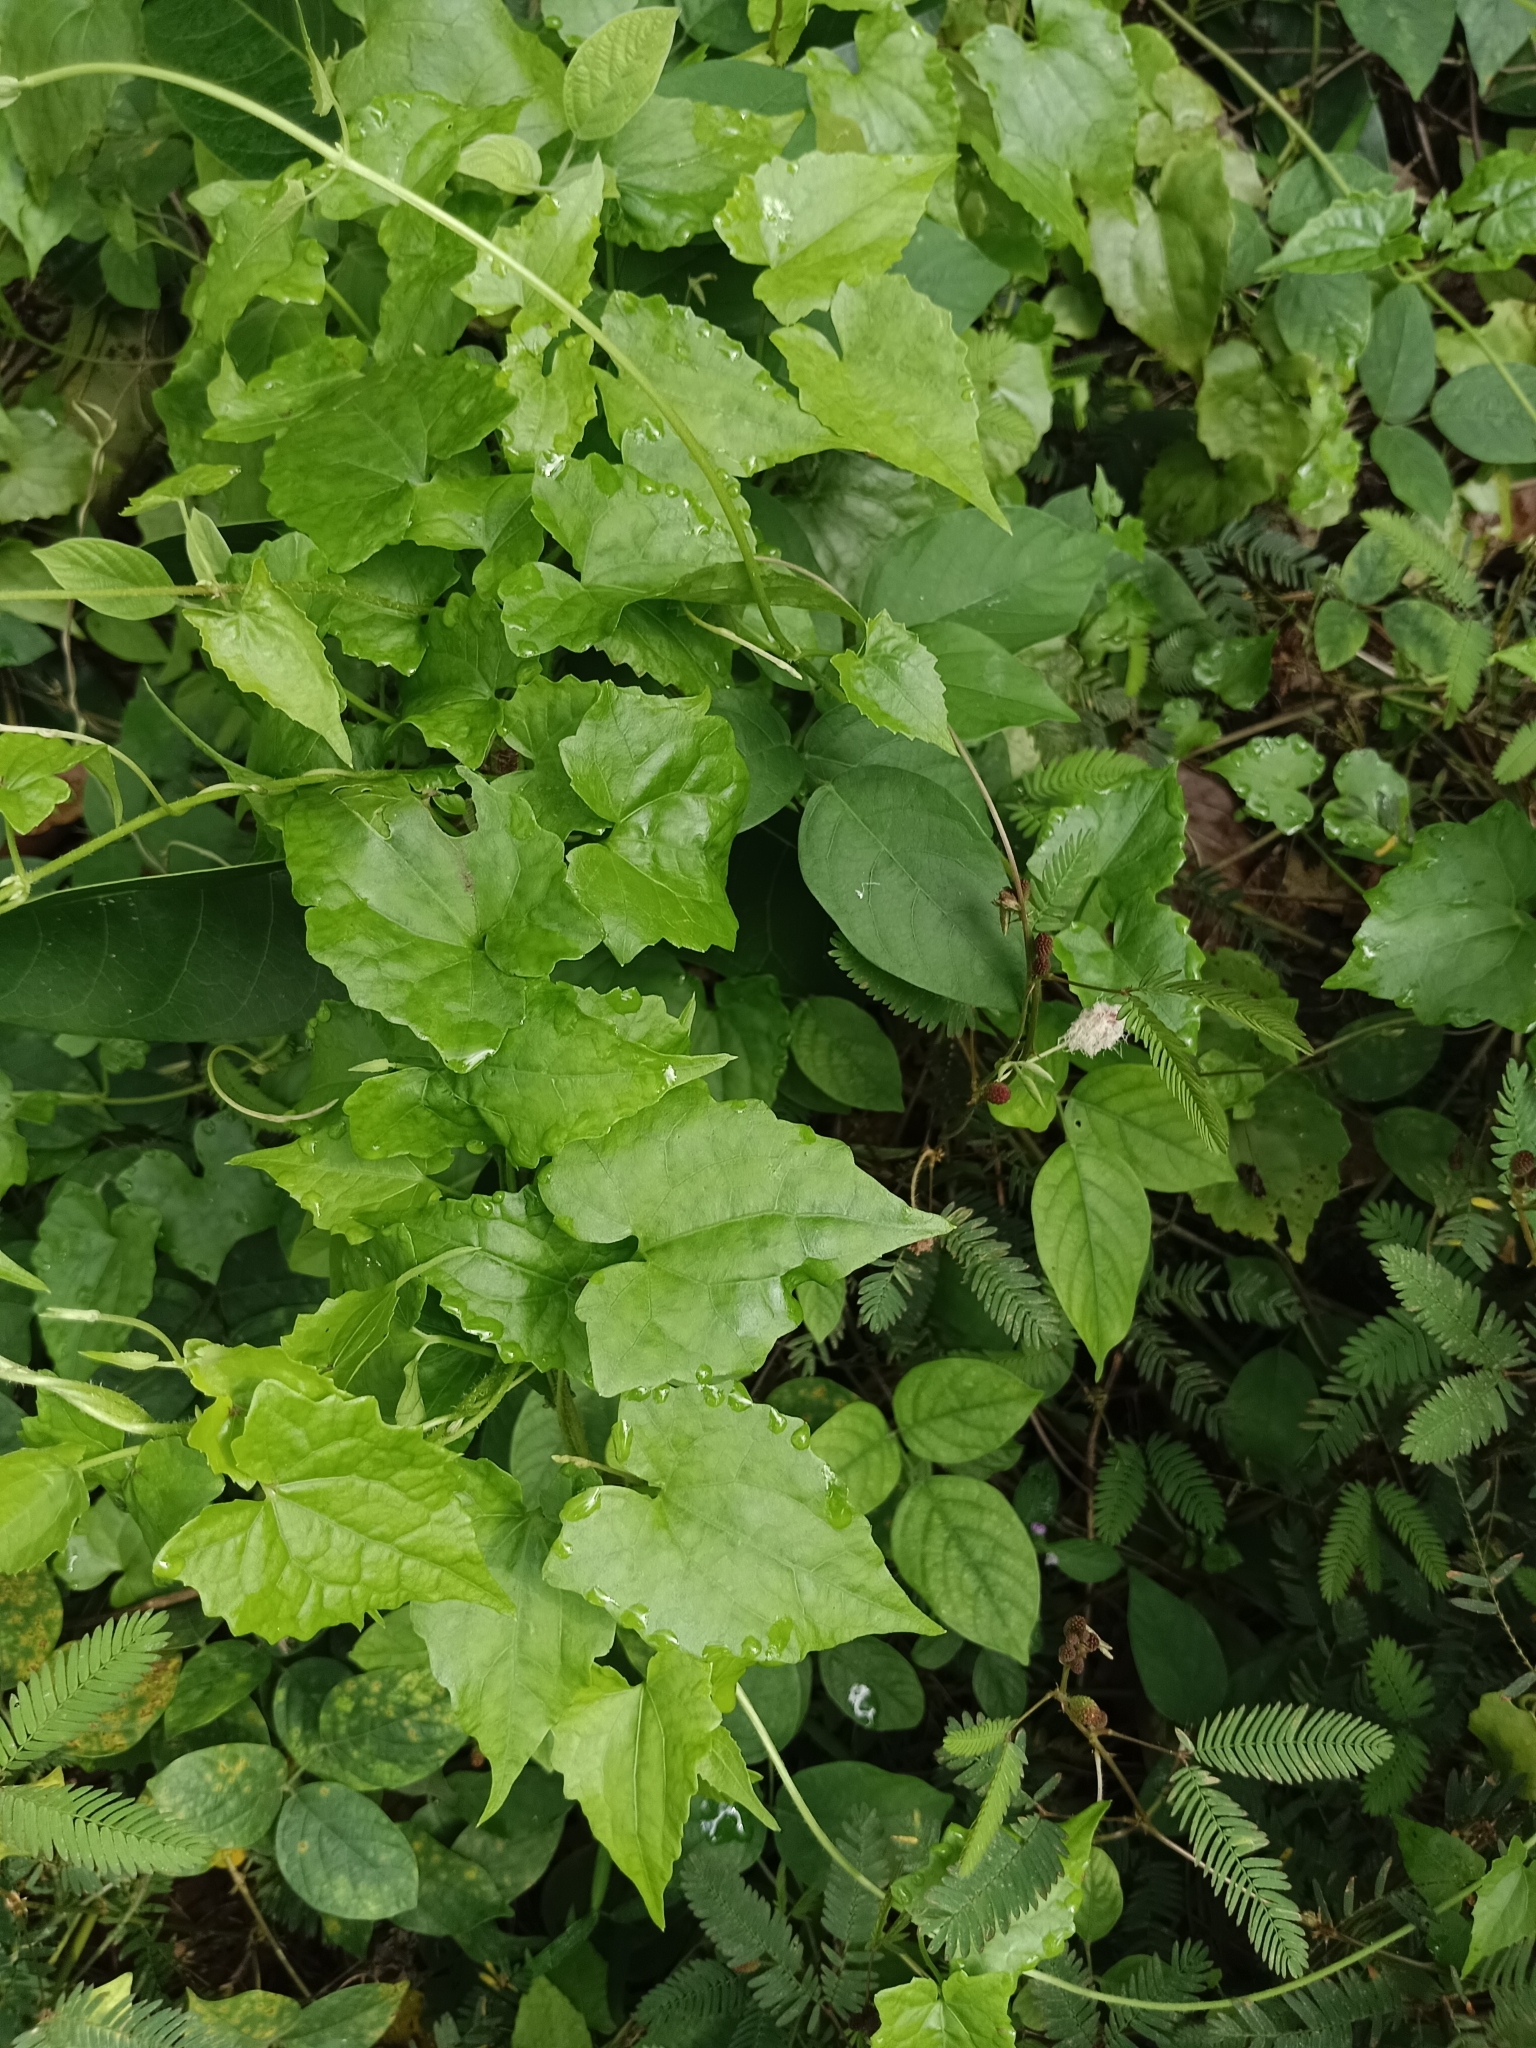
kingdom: Plantae
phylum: Tracheophyta
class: Magnoliopsida
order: Asterales
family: Asteraceae
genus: Mikania
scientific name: Mikania micrantha
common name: Mile-a-minute
